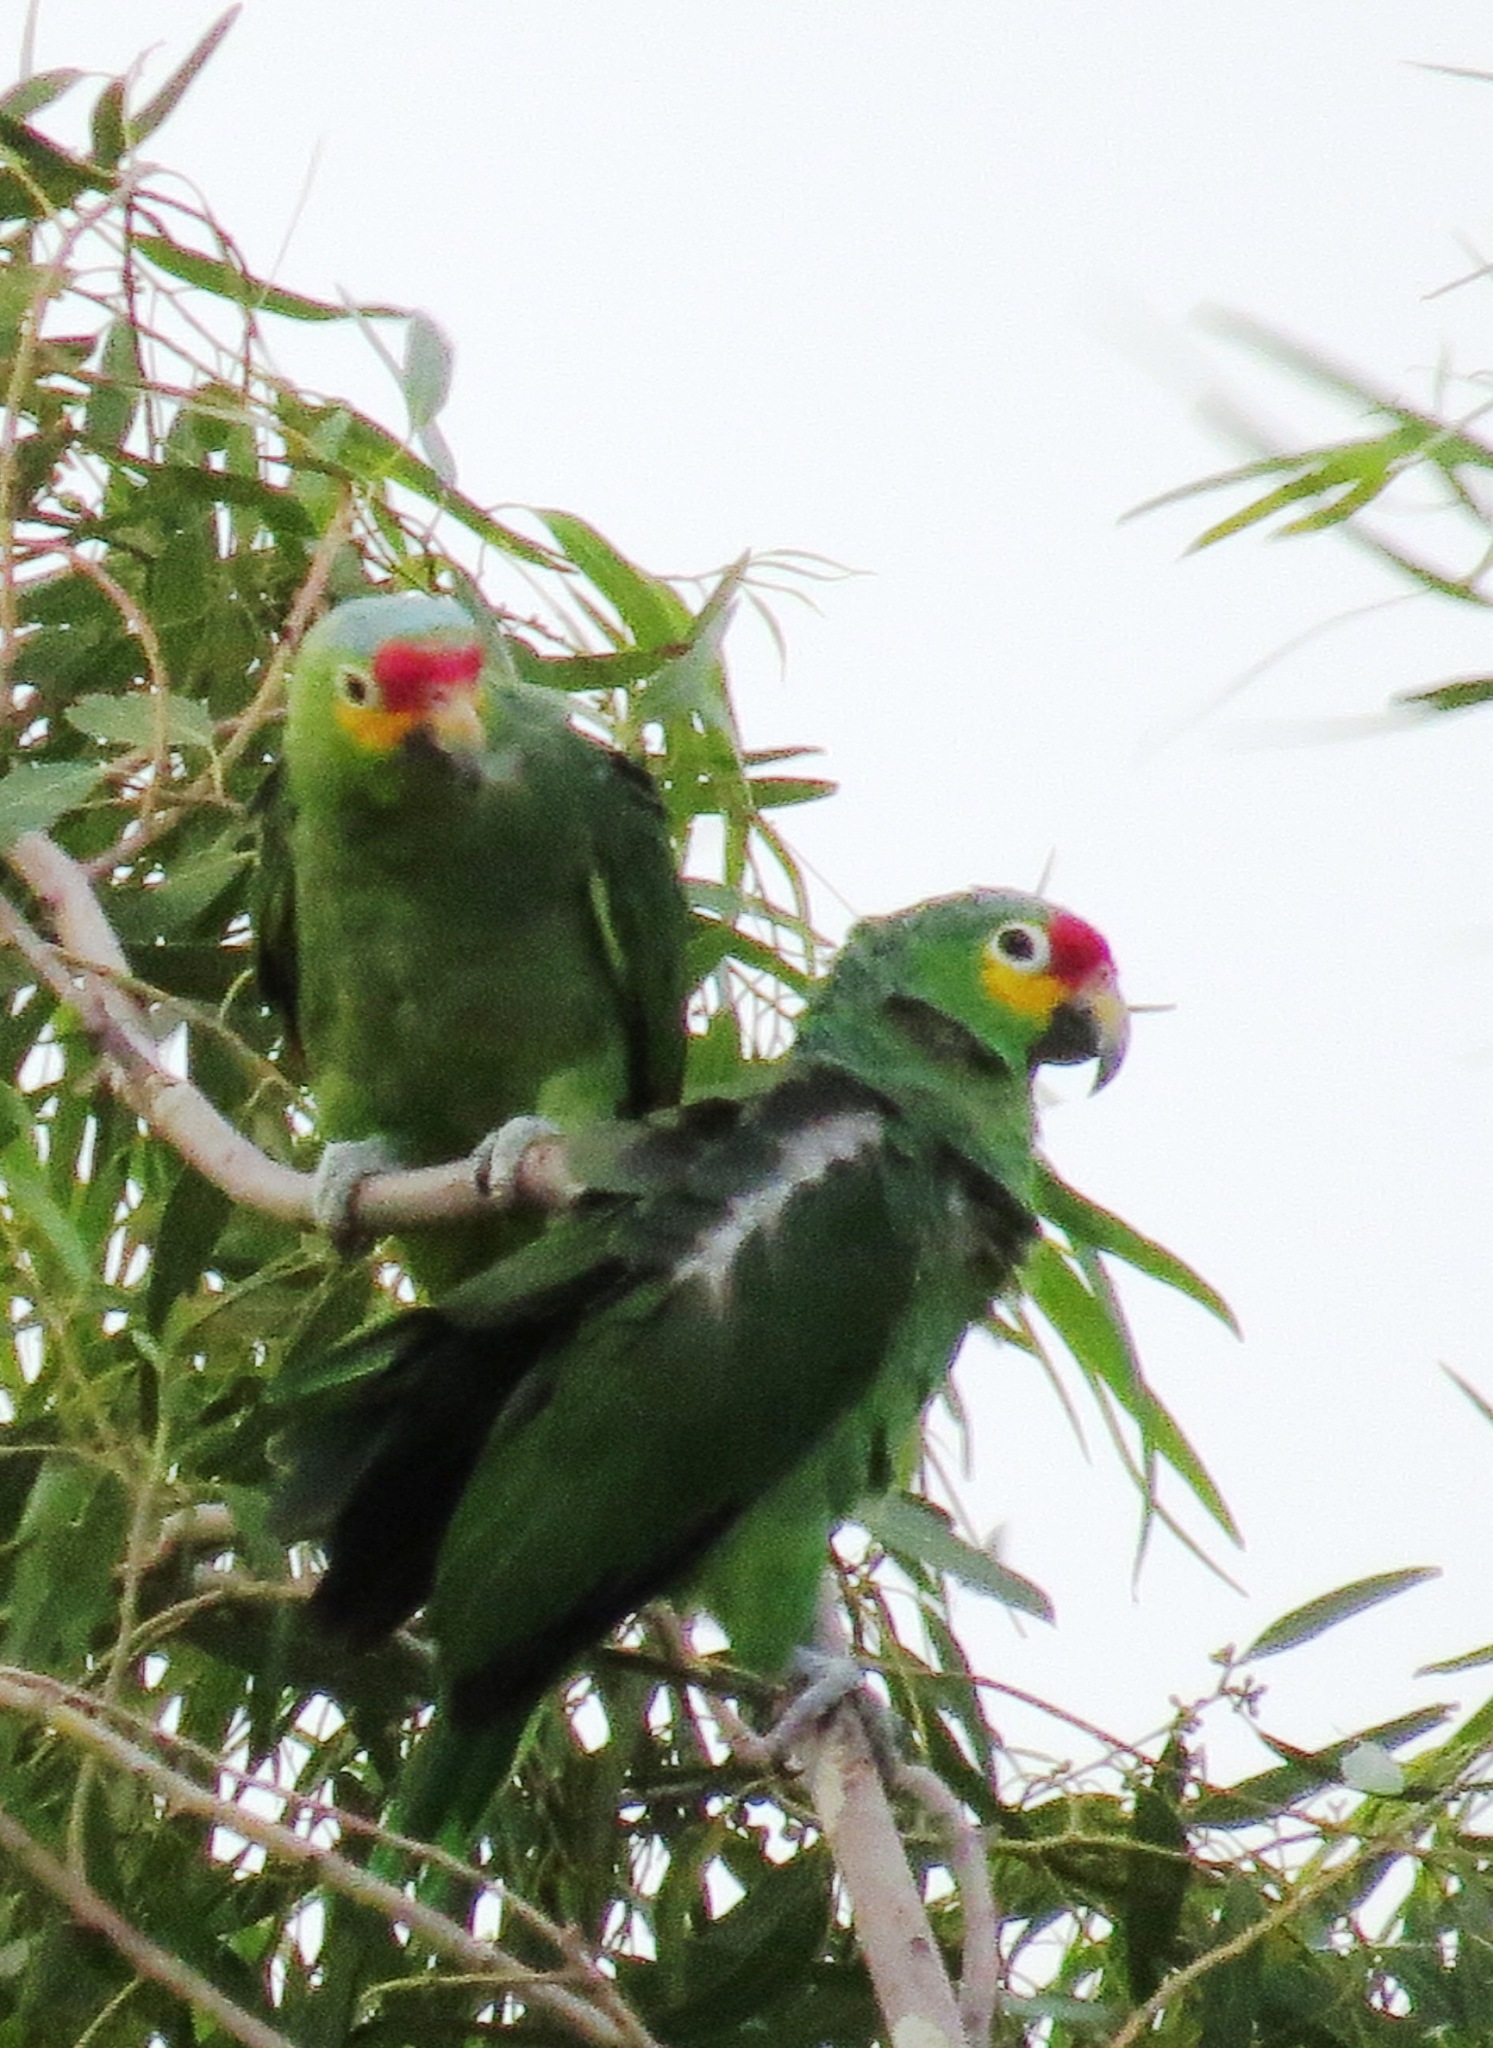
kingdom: Animalia
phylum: Chordata
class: Aves
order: Psittaciformes
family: Psittacidae
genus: Amazona
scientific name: Amazona autumnalis
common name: Red-lored amazon
